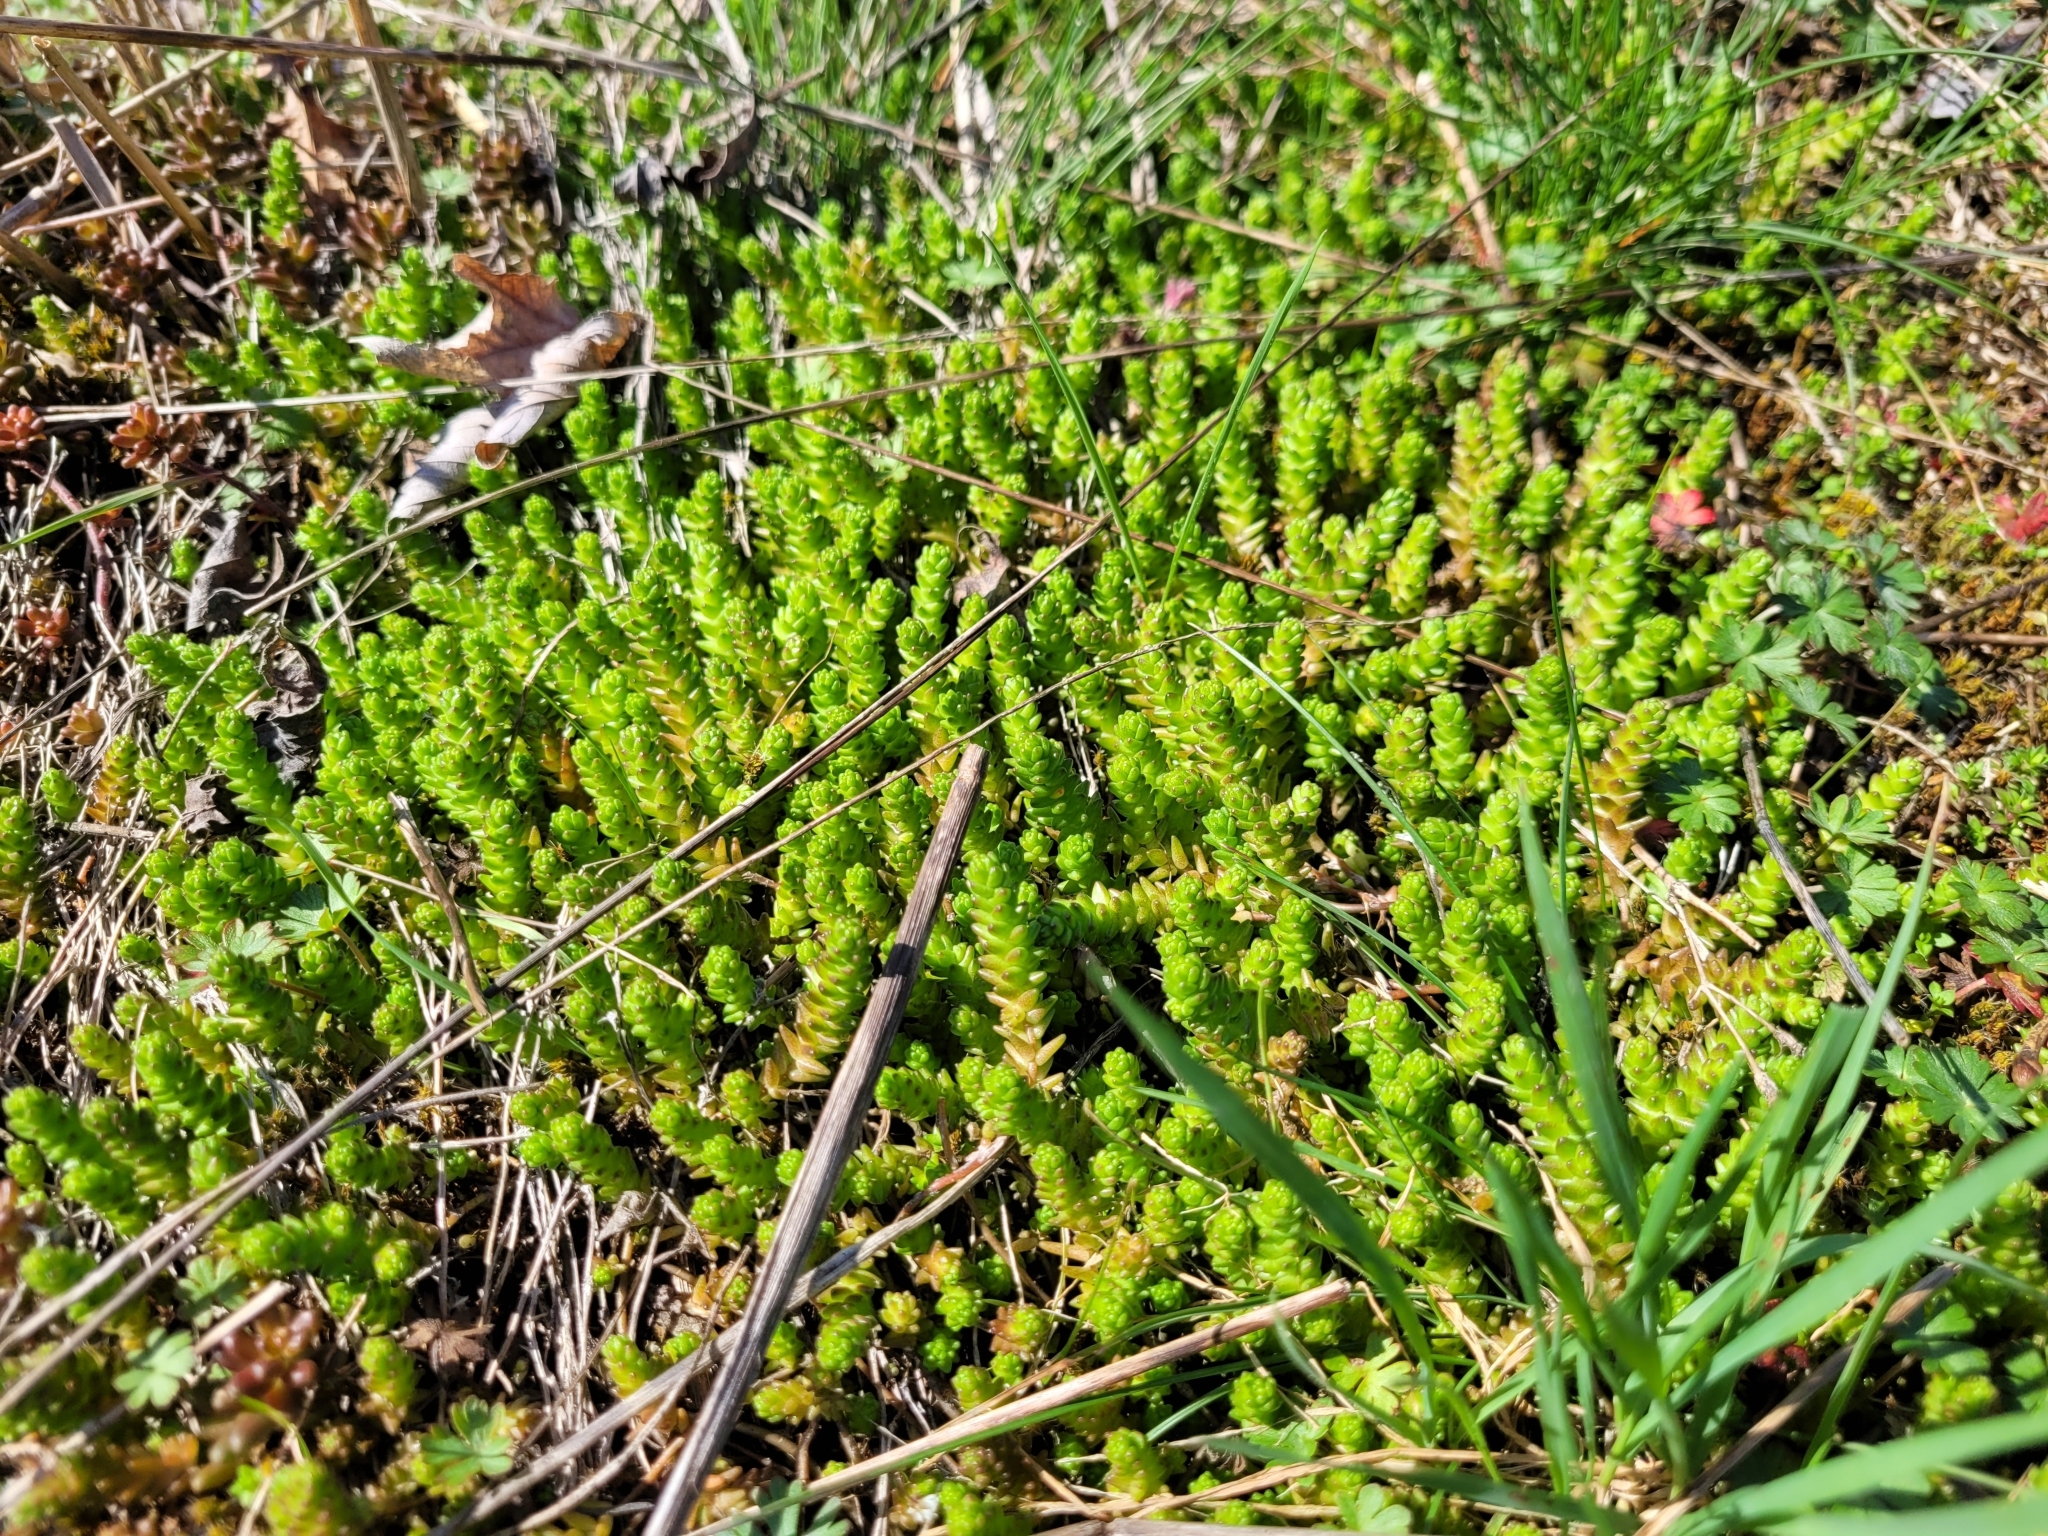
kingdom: Plantae
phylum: Tracheophyta
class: Magnoliopsida
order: Saxifragales
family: Crassulaceae
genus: Sedum
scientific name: Sedum acre
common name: Biting stonecrop
